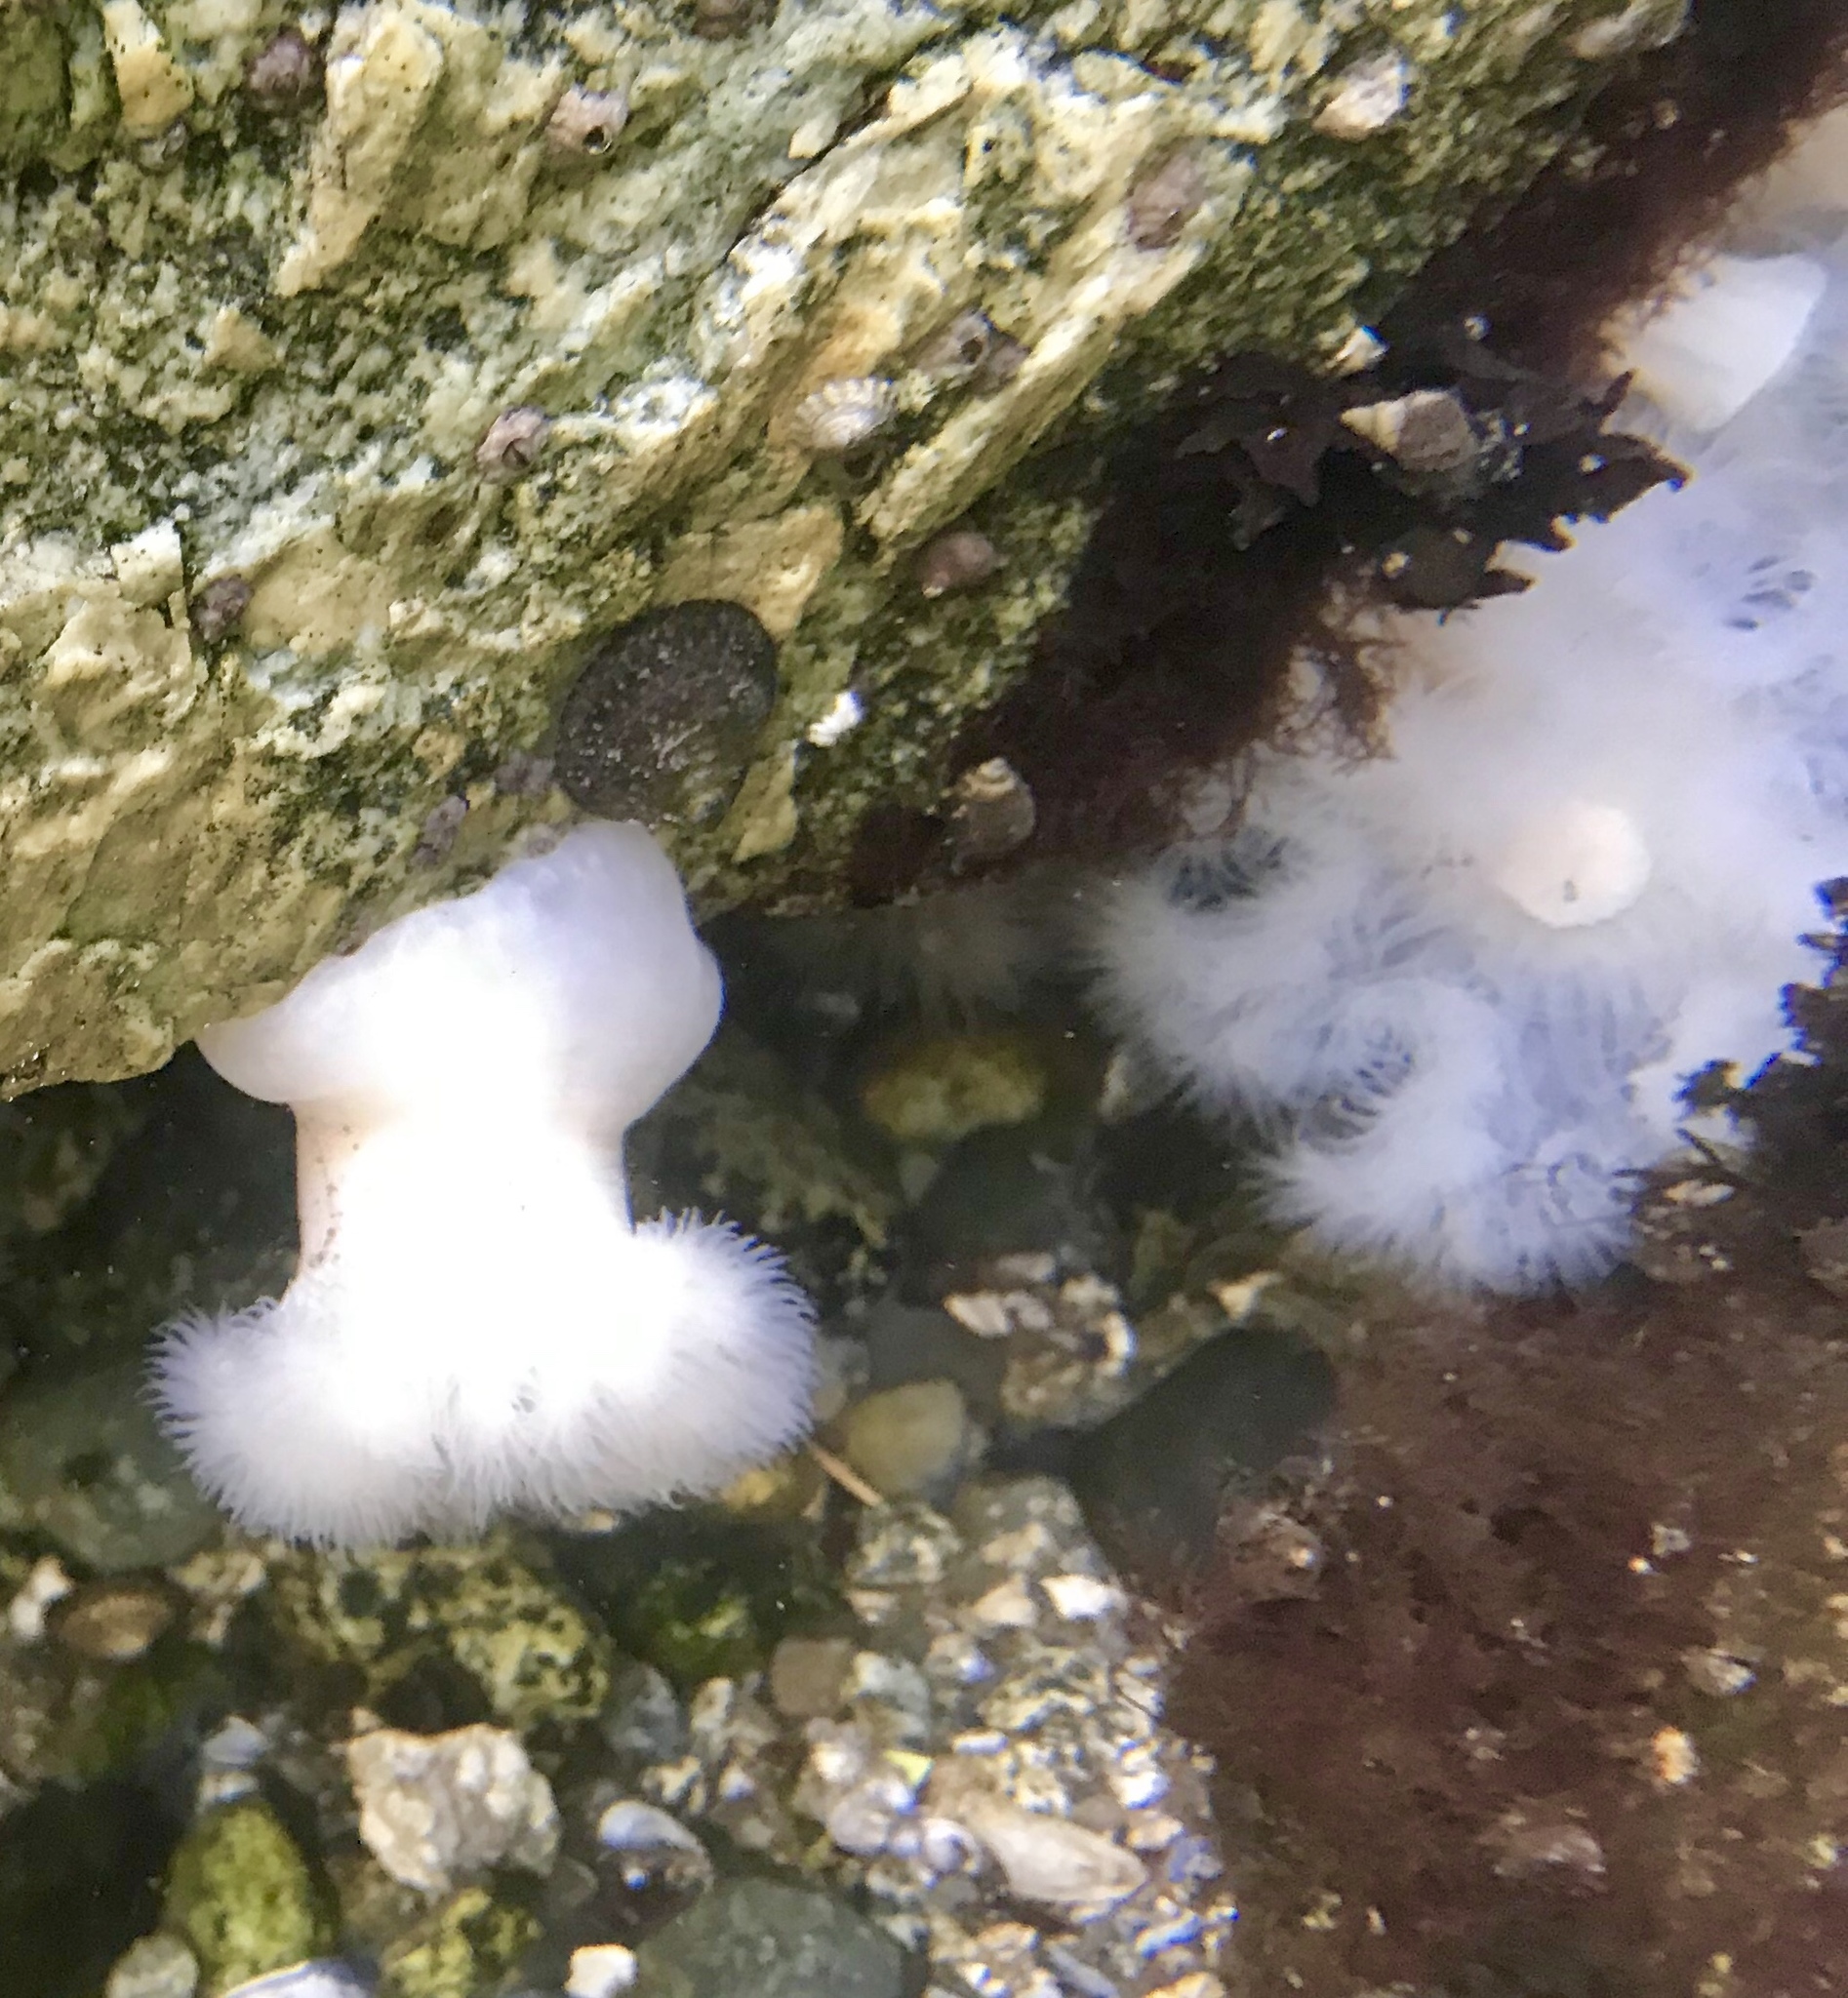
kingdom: Animalia
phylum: Cnidaria
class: Anthozoa
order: Actiniaria
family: Metridiidae
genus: Metridium
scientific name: Metridium senile
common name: Clonal plumose anemone
